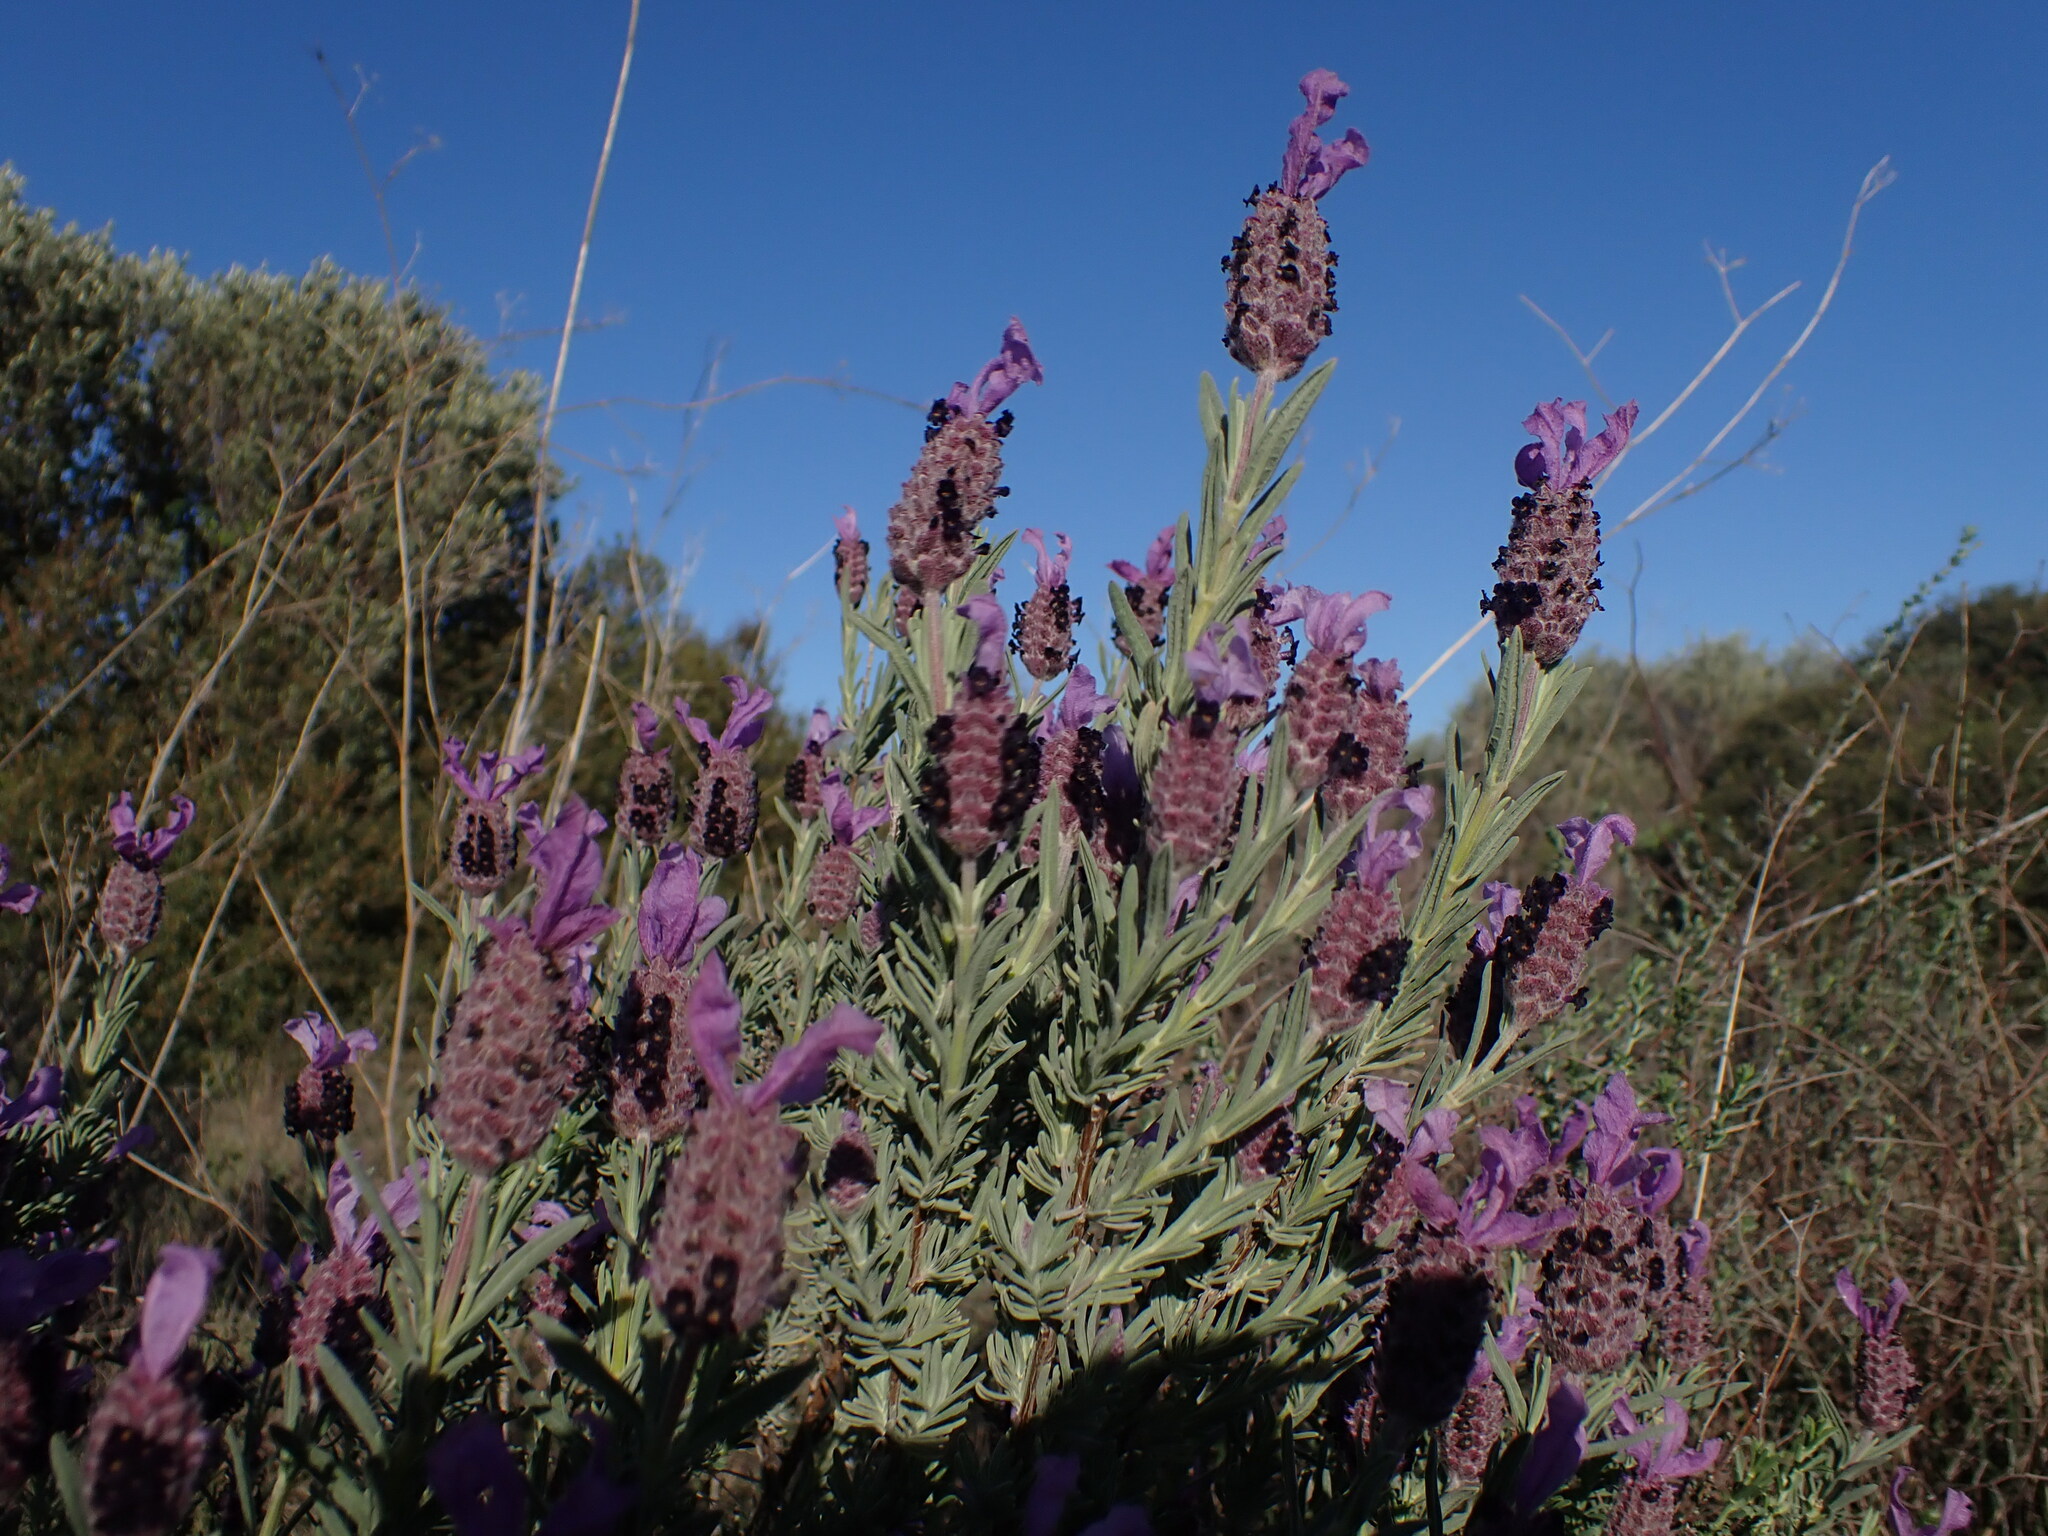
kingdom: Plantae
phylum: Tracheophyta
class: Magnoliopsida
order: Lamiales
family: Lamiaceae
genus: Lavandula
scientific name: Lavandula stoechas
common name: French lavender
